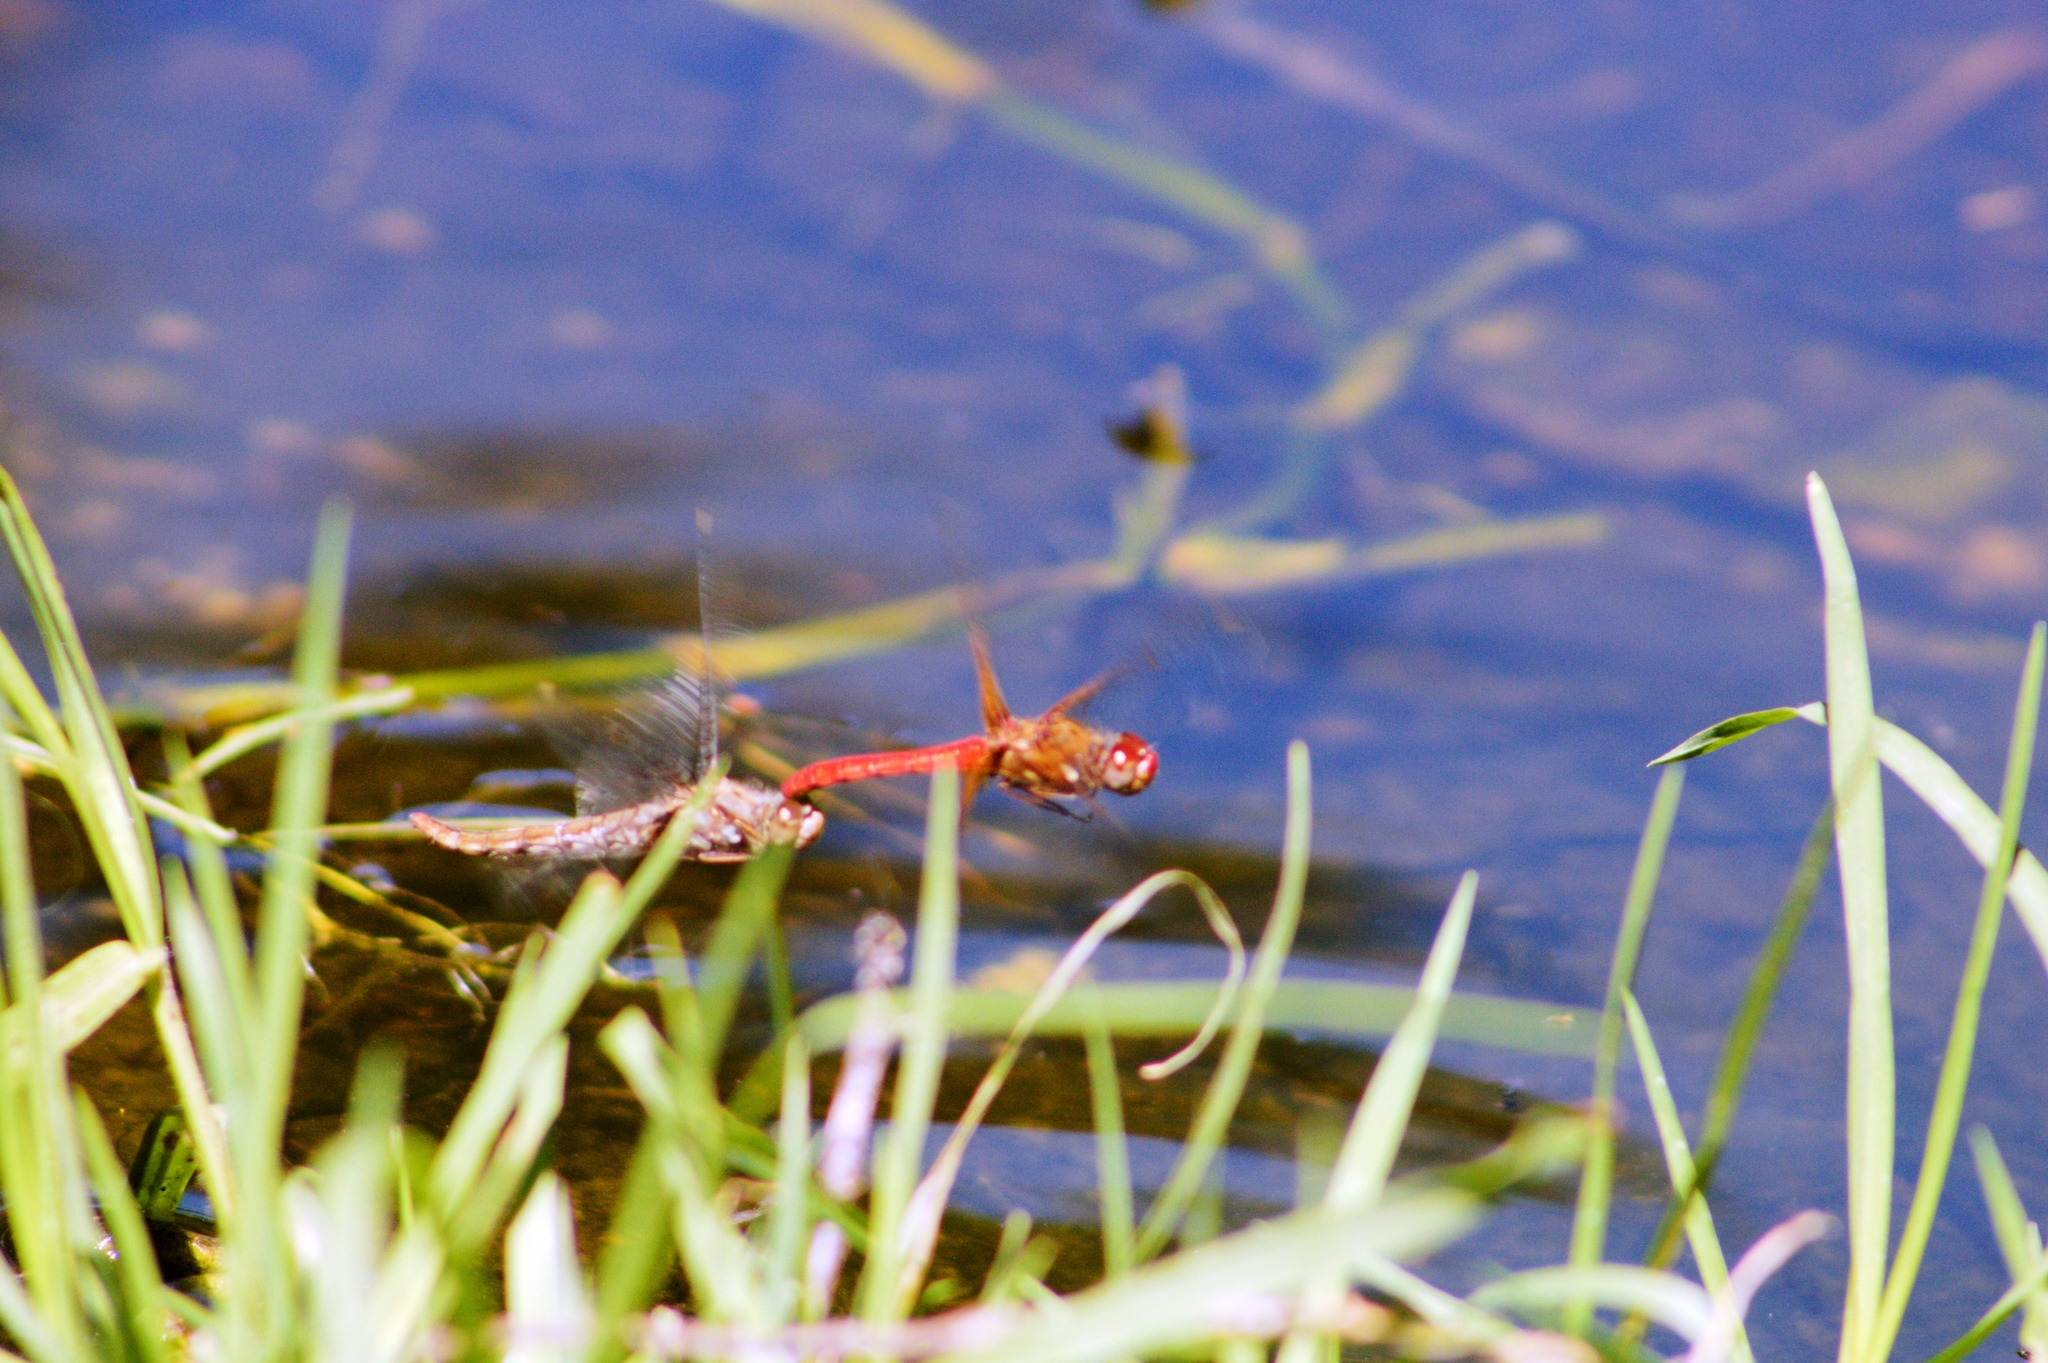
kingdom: Animalia
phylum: Arthropoda
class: Insecta
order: Odonata
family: Libellulidae
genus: Sympetrum
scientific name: Sympetrum illotum
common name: Cardinal meadowhawk
